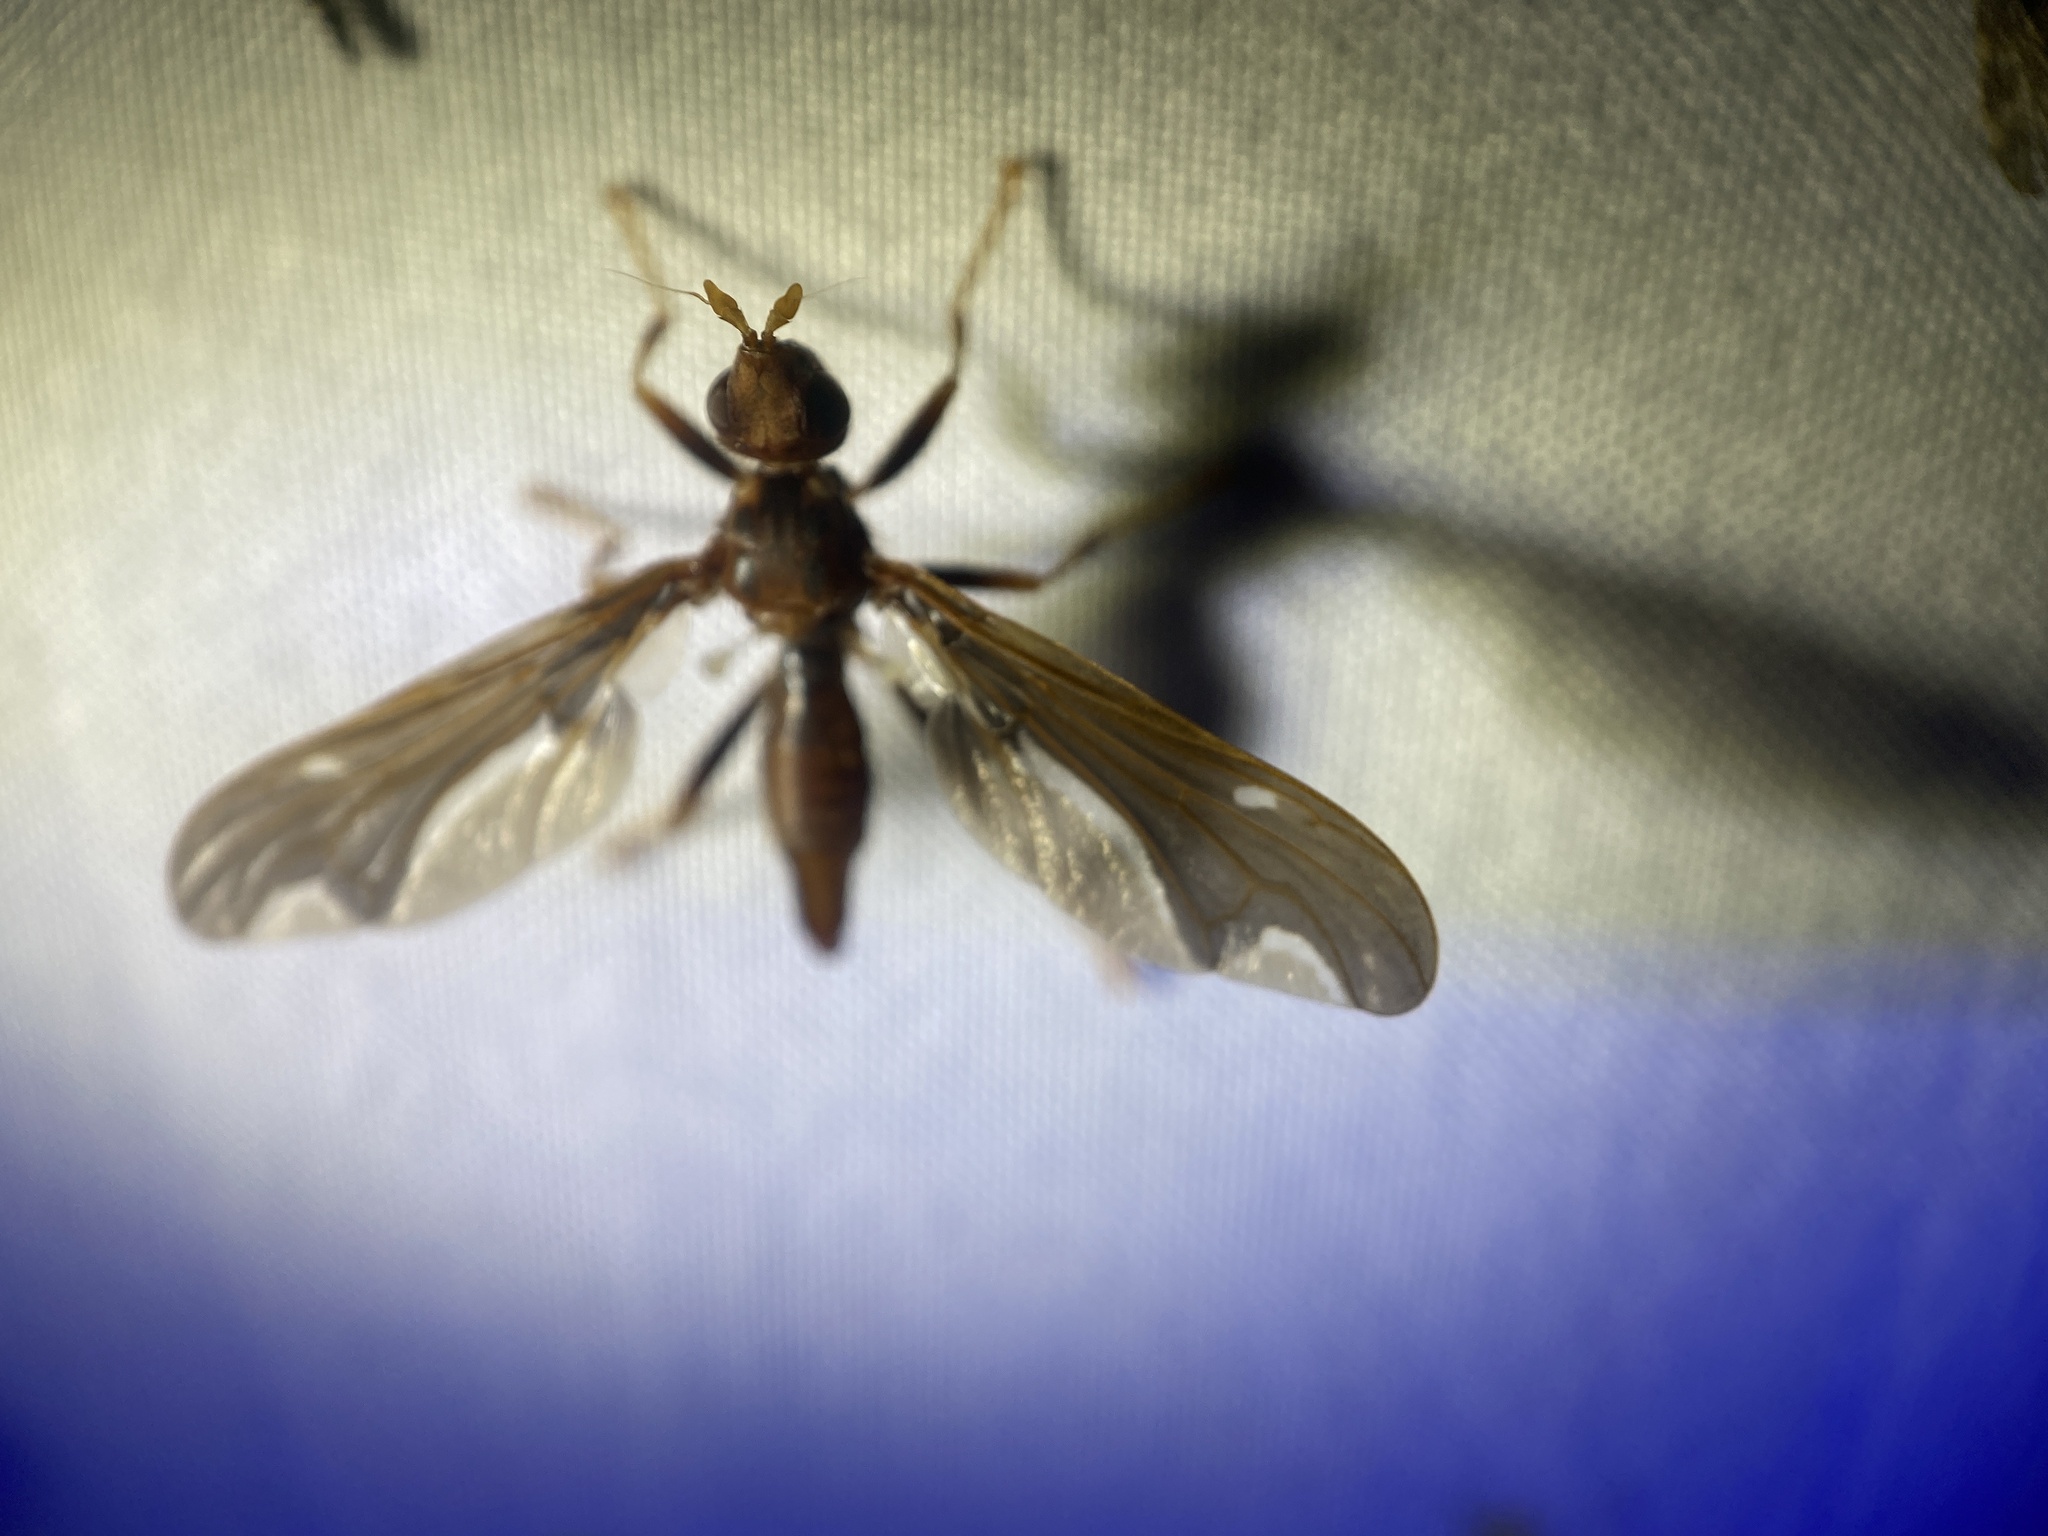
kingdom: Animalia
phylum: Arthropoda
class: Insecta
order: Diptera
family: Pyrgotidae
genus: Pyrgota
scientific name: Pyrgota undata
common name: Waved light fly
